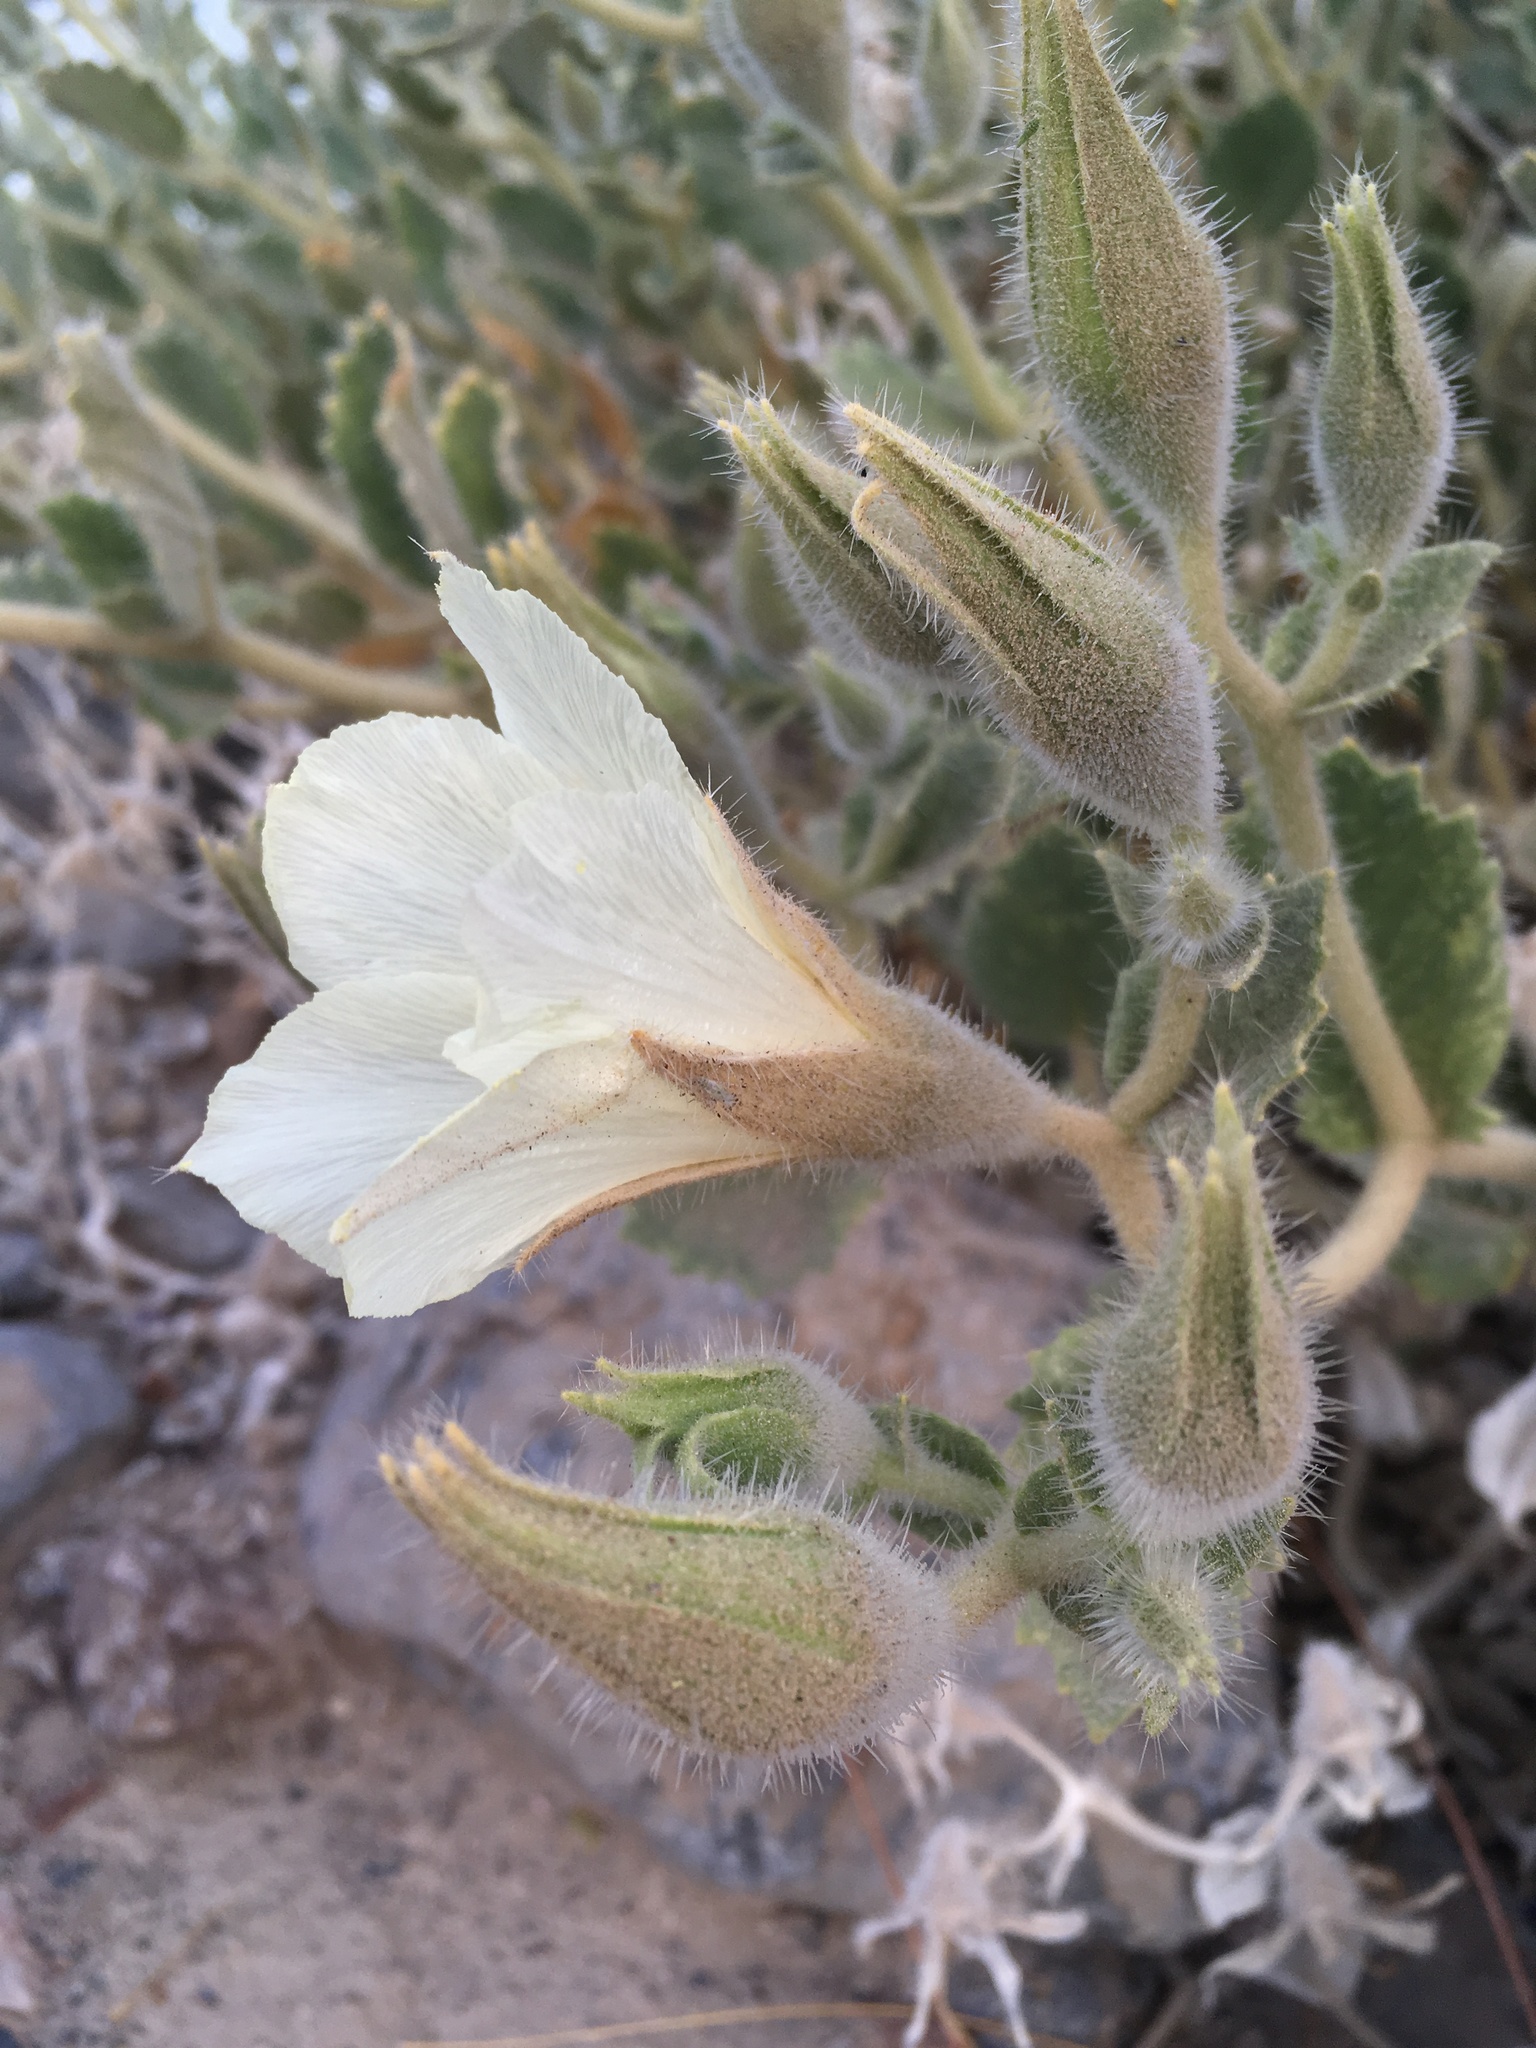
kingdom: Plantae
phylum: Tracheophyta
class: Magnoliopsida
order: Cornales
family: Loasaceae
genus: Eucnide
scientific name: Eucnide urens
